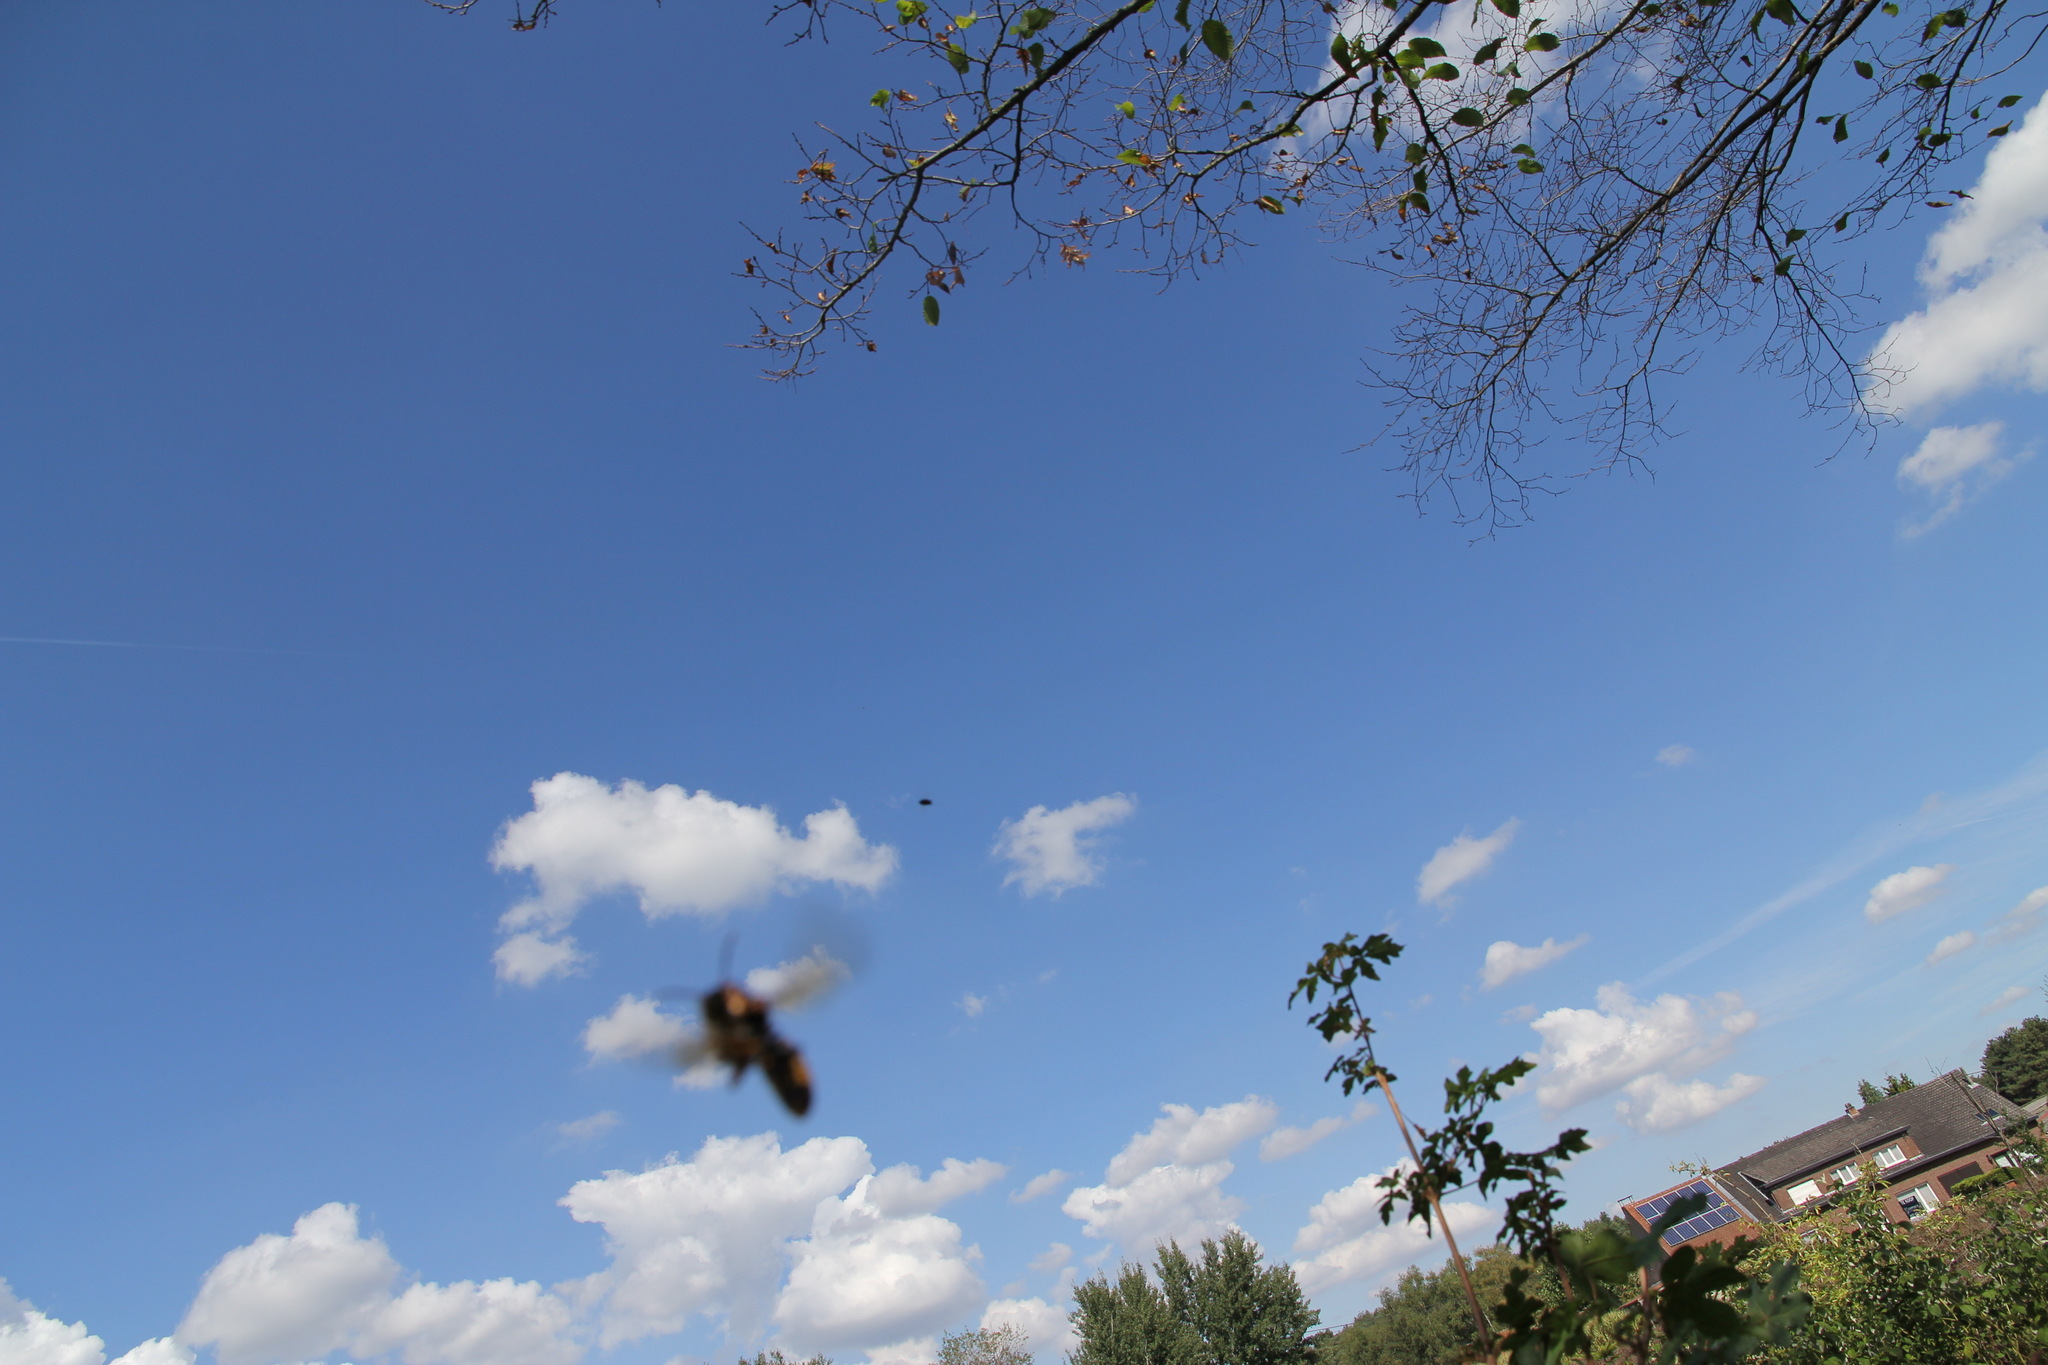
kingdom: Animalia
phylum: Arthropoda
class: Insecta
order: Hymenoptera
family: Vespidae
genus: Vespa
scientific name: Vespa velutina
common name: Asian hornet
